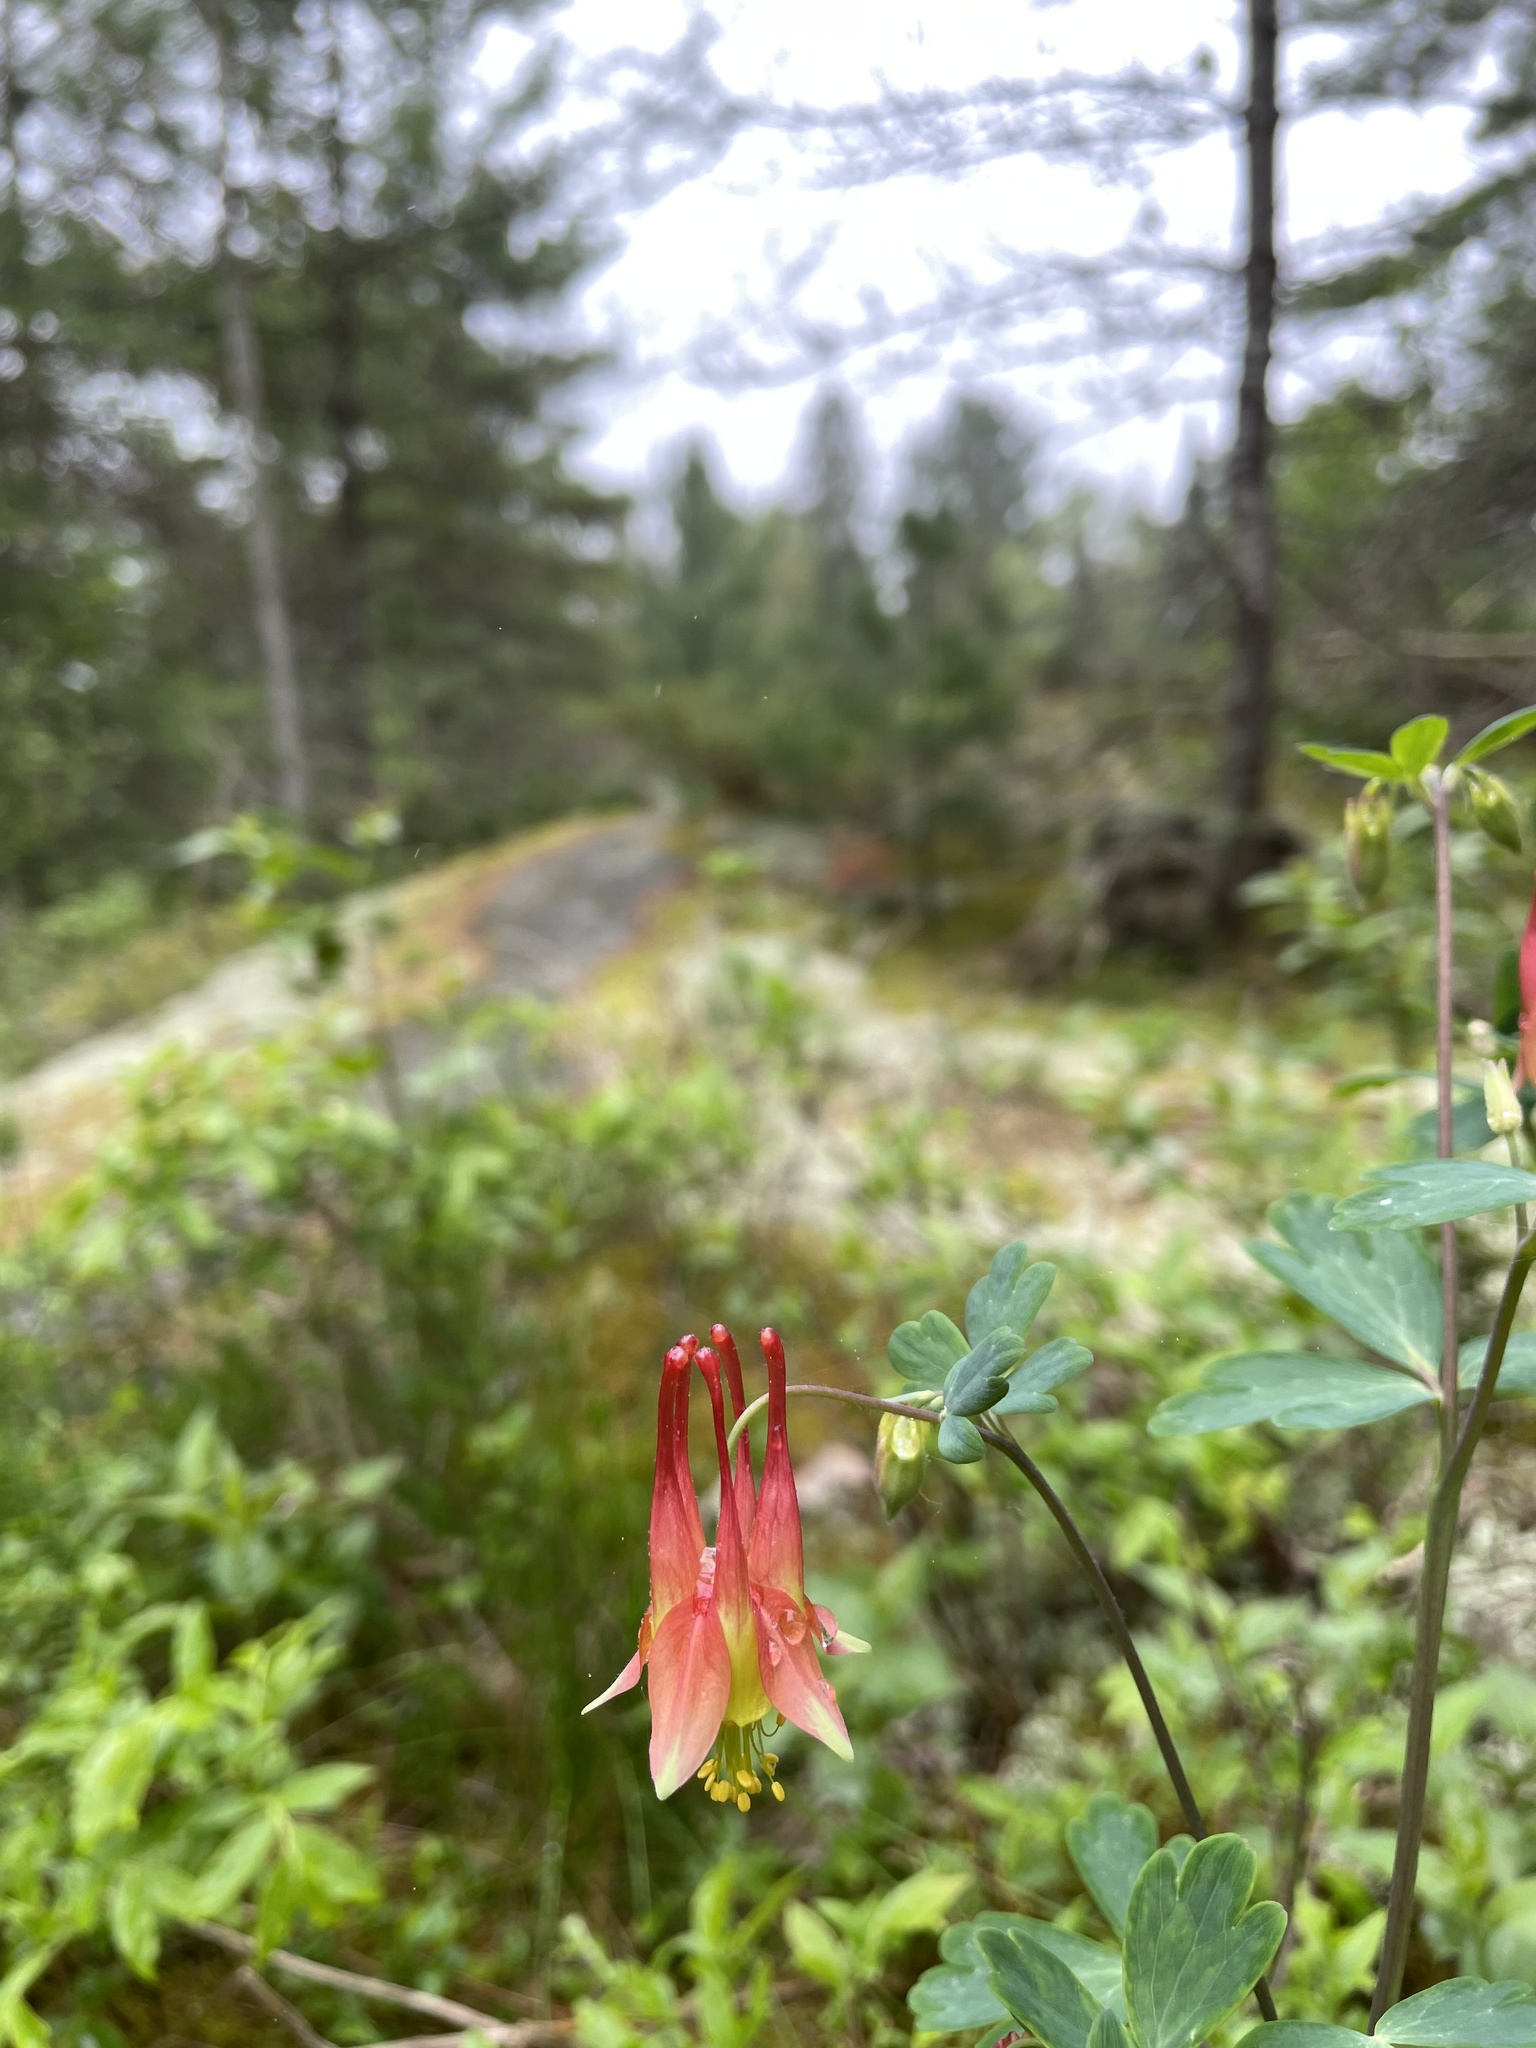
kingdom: Plantae
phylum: Tracheophyta
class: Magnoliopsida
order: Ranunculales
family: Ranunculaceae
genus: Aquilegia
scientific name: Aquilegia canadensis
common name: American columbine
